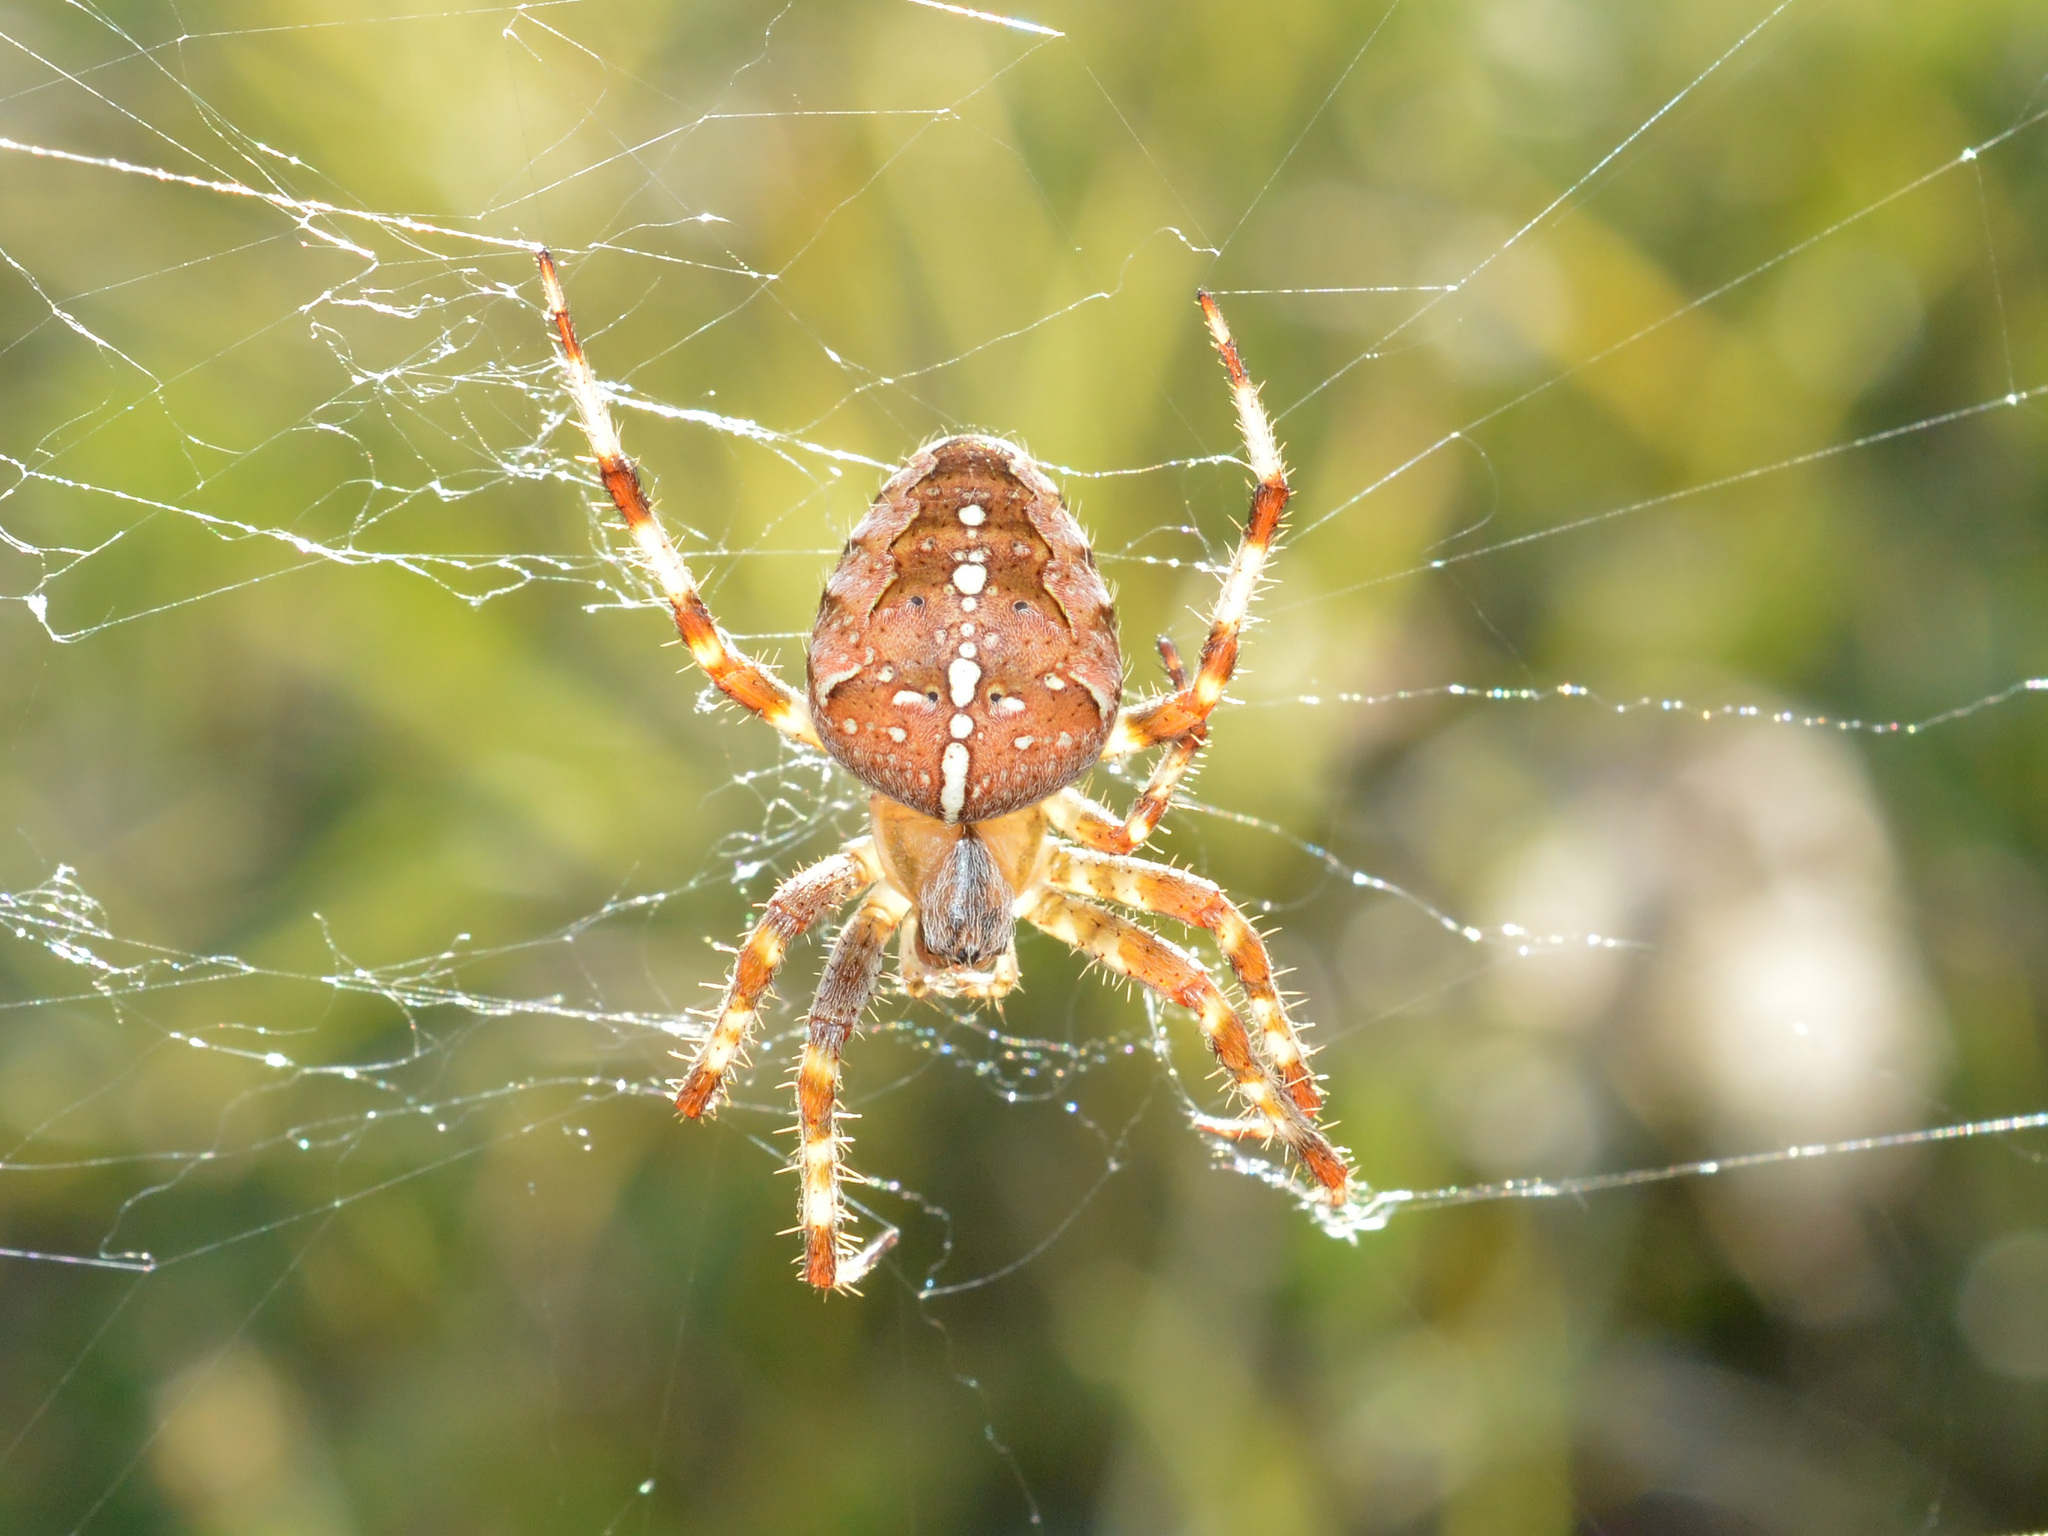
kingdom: Animalia
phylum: Arthropoda
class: Arachnida
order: Araneae
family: Araneidae
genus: Araneus
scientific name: Araneus diadematus
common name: Cross orbweaver
